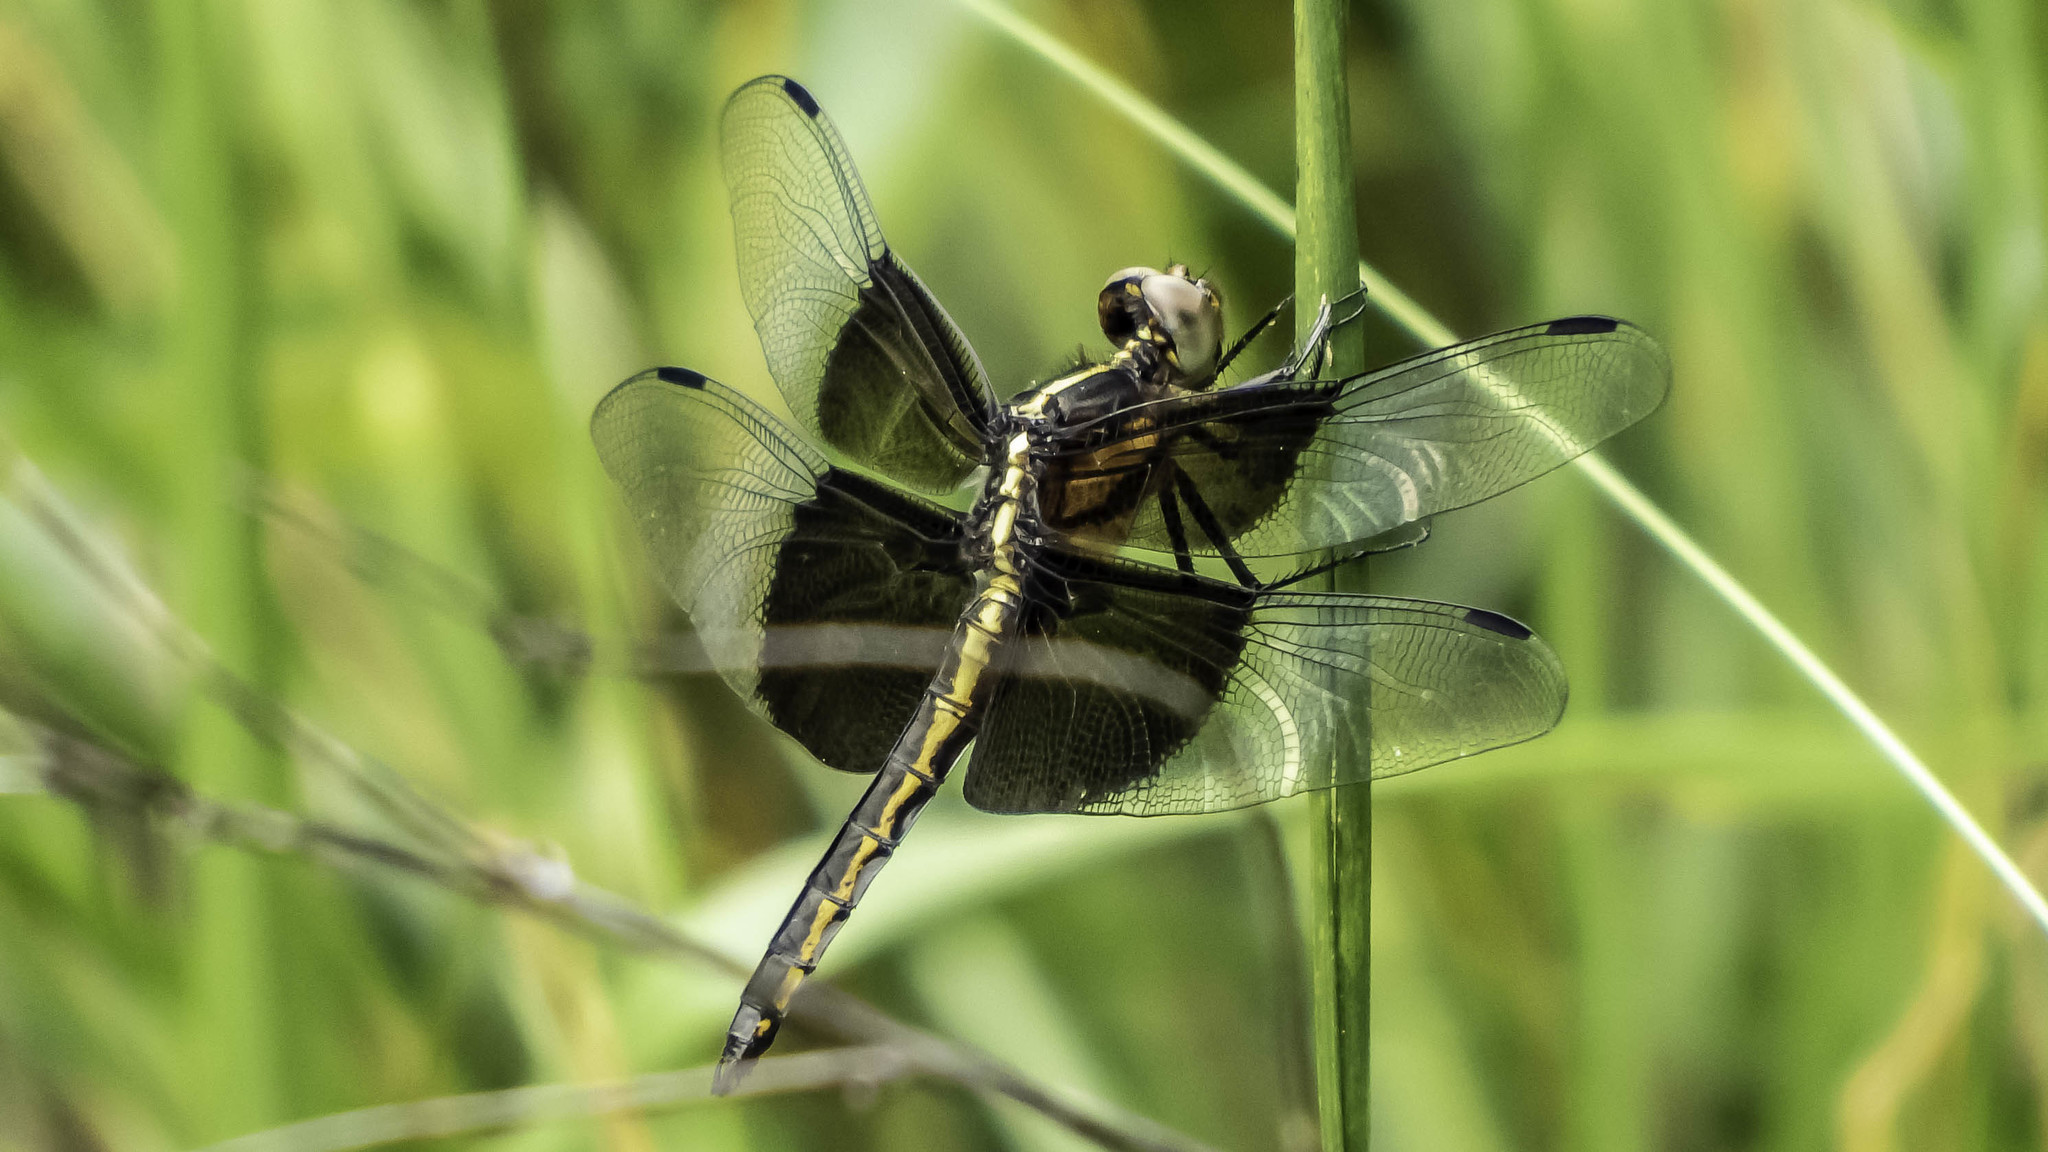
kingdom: Animalia
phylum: Arthropoda
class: Insecta
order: Odonata
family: Libellulidae
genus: Libellula
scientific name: Libellula luctuosa
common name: Widow skimmer
